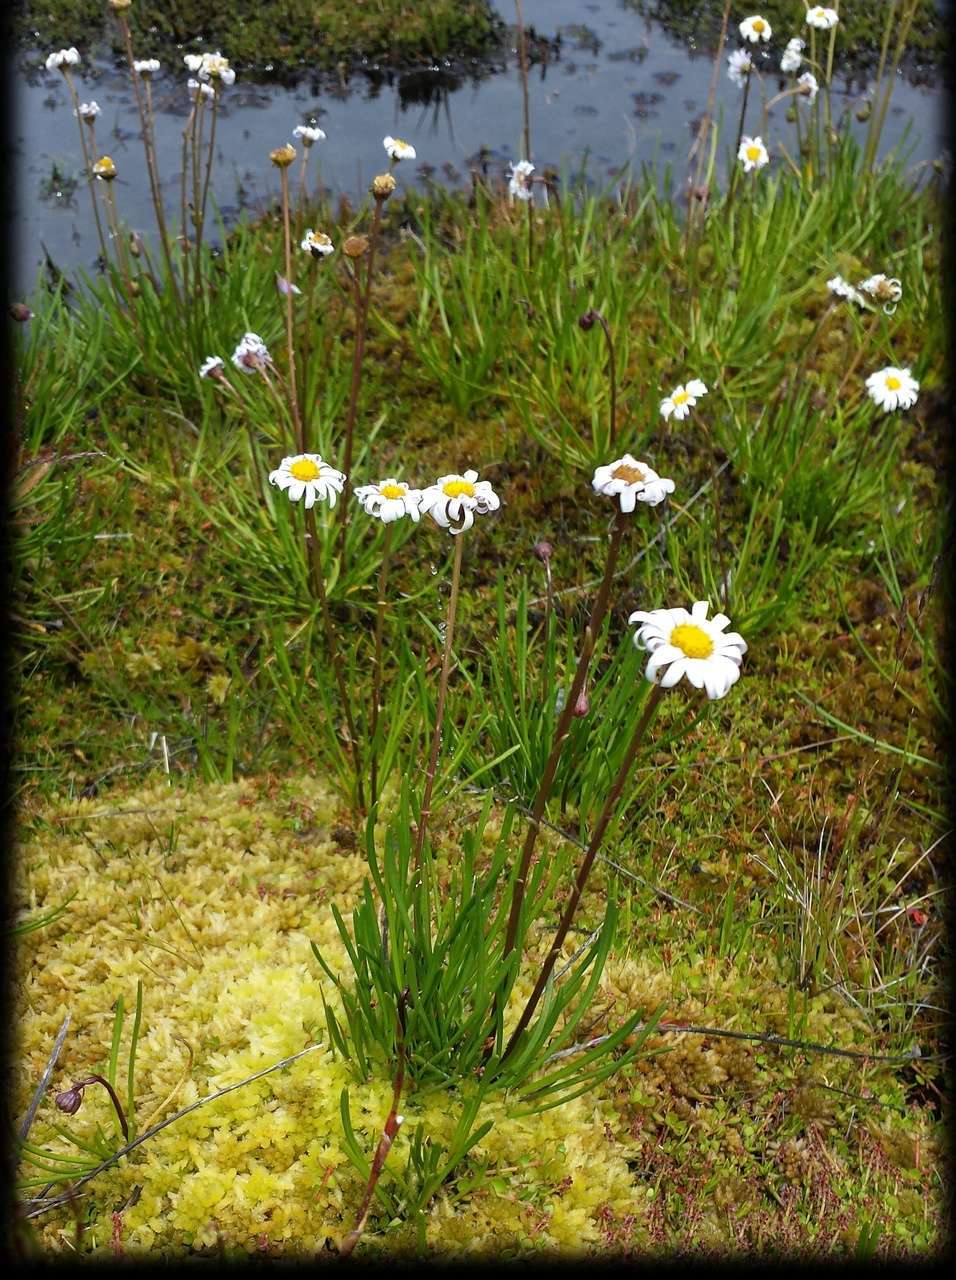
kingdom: Plantae
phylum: Tracheophyta
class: Magnoliopsida
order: Asterales
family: Asteraceae
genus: Brachyscome
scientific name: Brachyscome obovata
